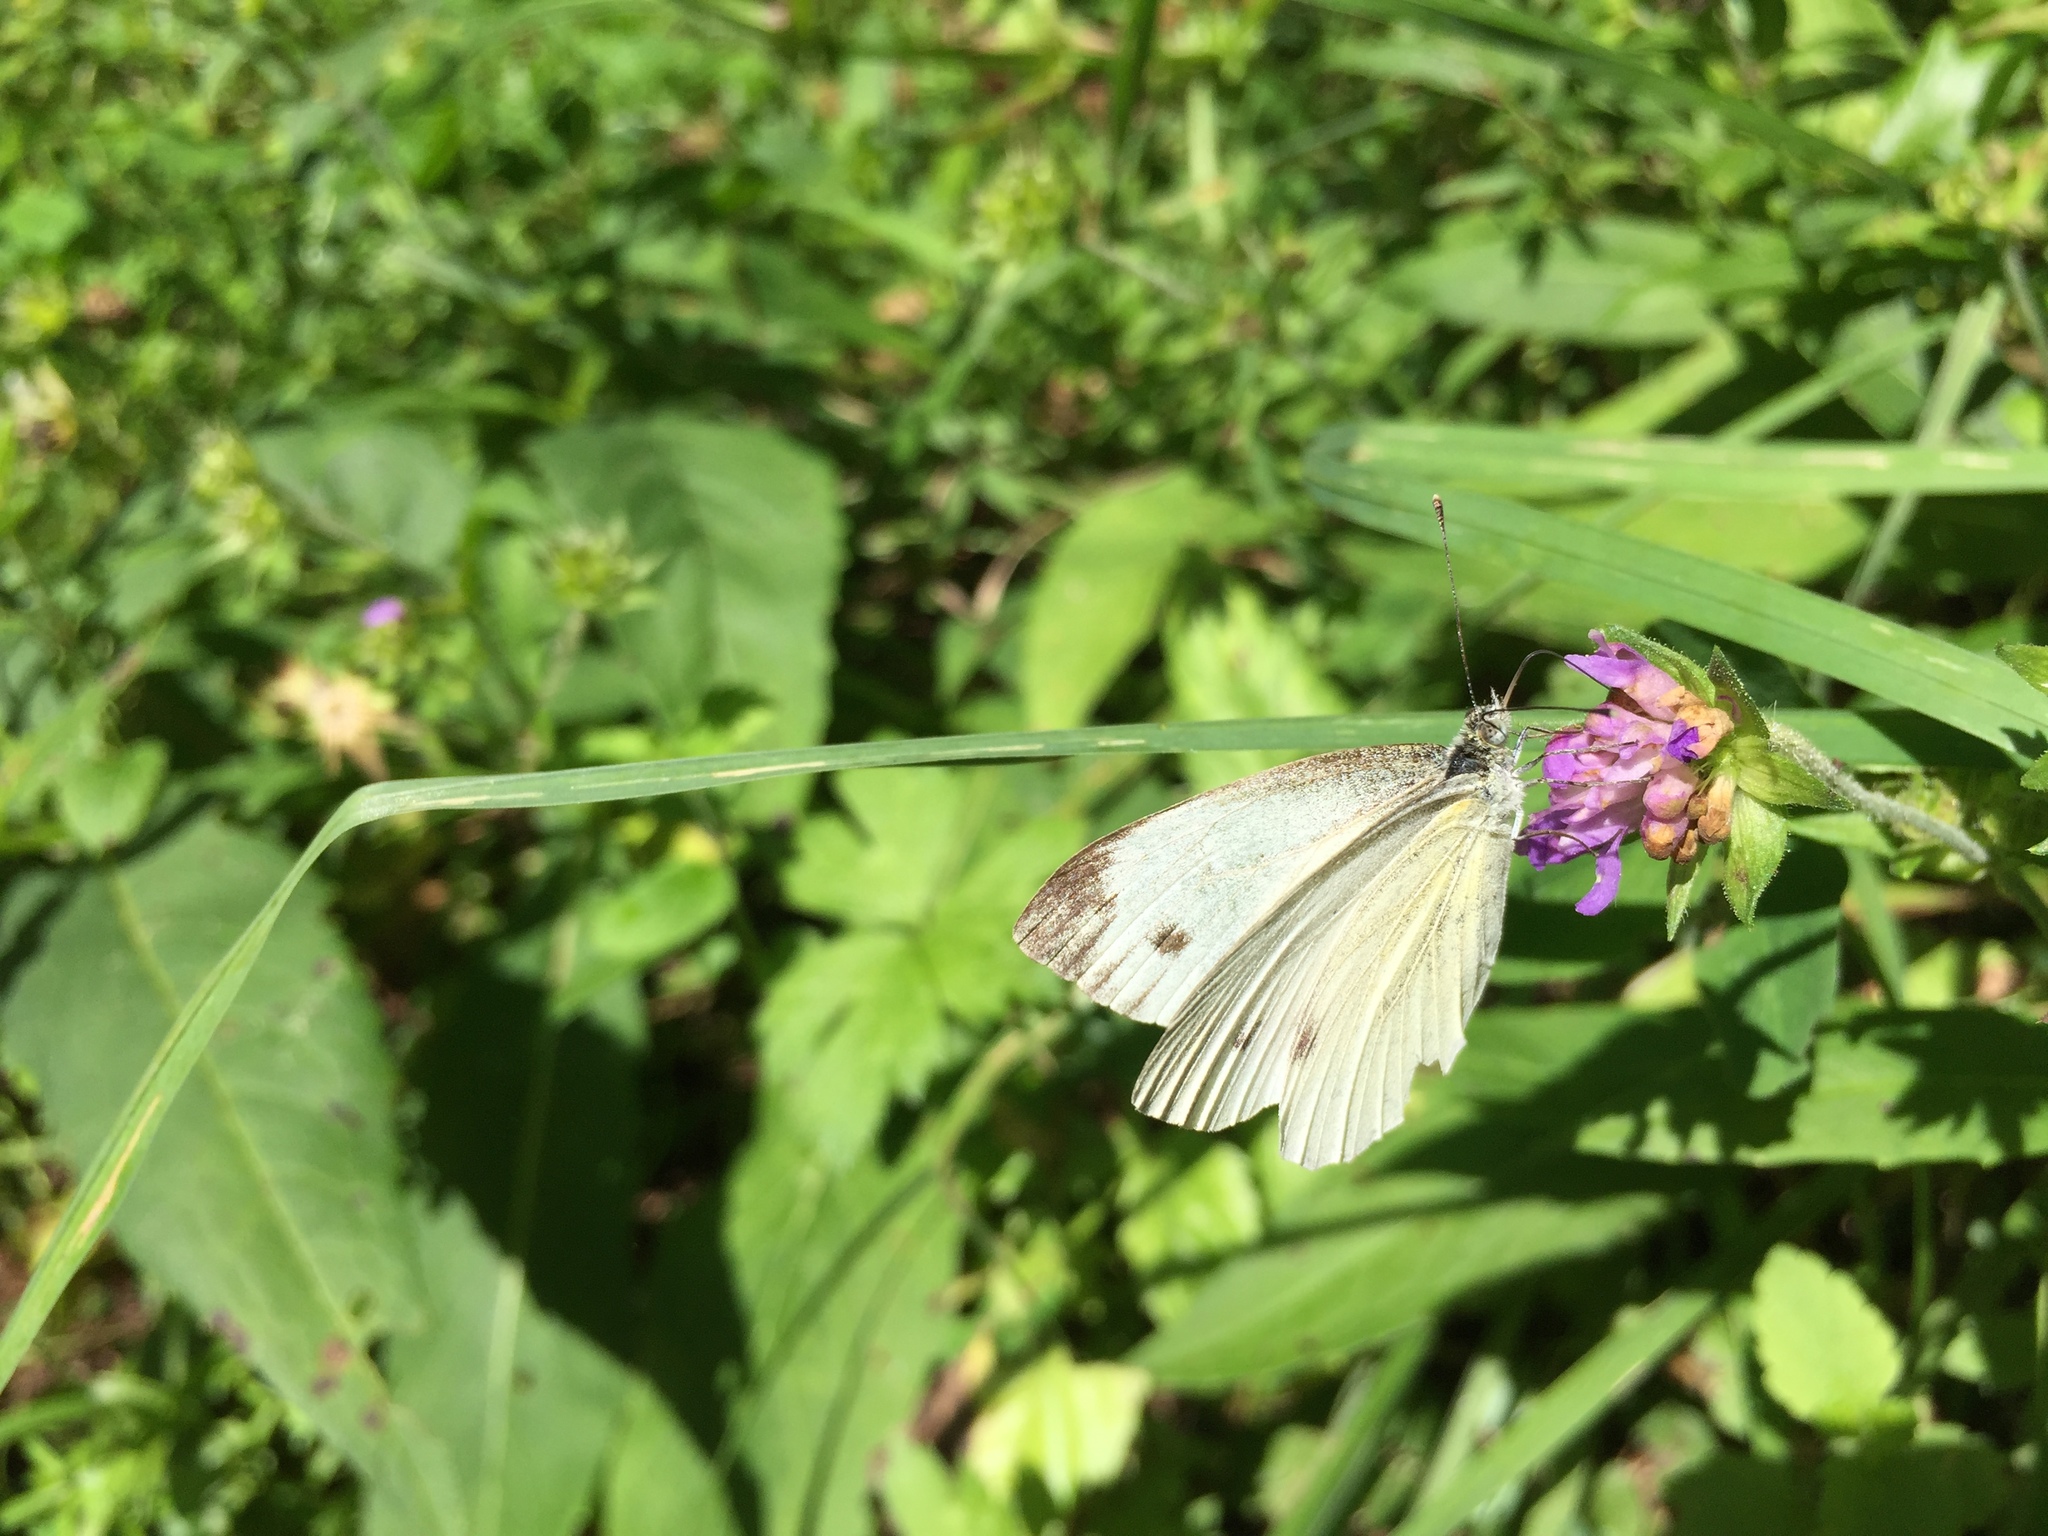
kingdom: Animalia
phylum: Arthropoda
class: Insecta
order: Lepidoptera
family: Pieridae
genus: Pieris
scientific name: Pieris napi
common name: Green-veined white
